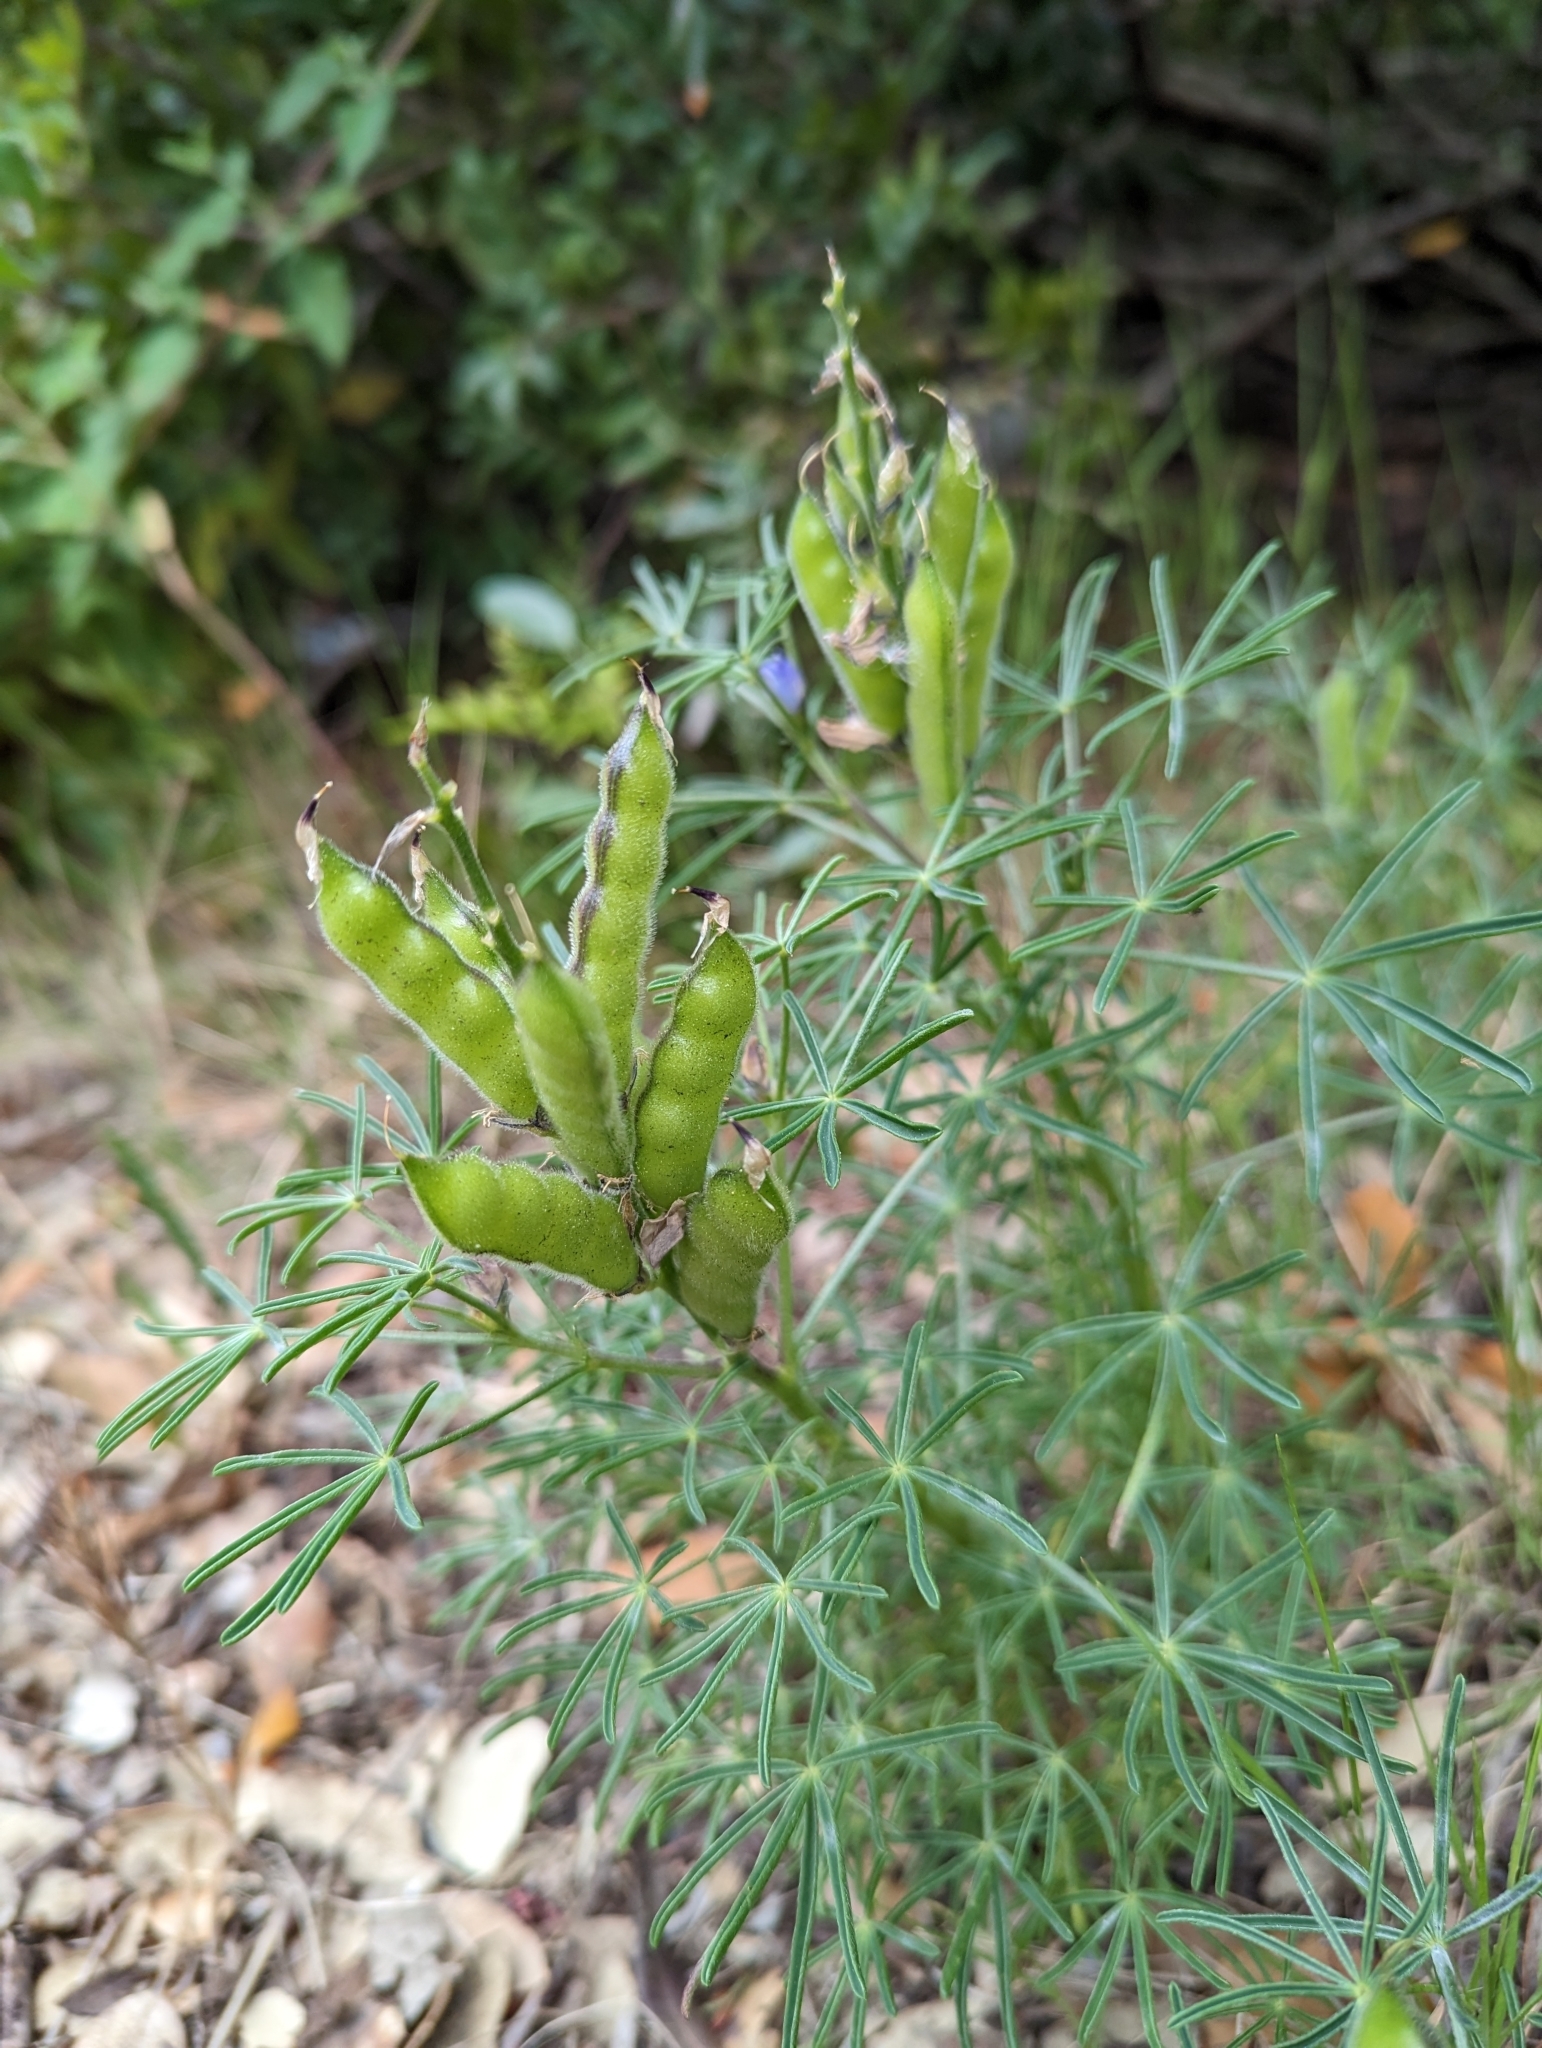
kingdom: Plantae
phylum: Tracheophyta
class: Magnoliopsida
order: Fabales
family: Fabaceae
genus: Lupinus
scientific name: Lupinus angustifolius
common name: Narrow-leaved lupin
